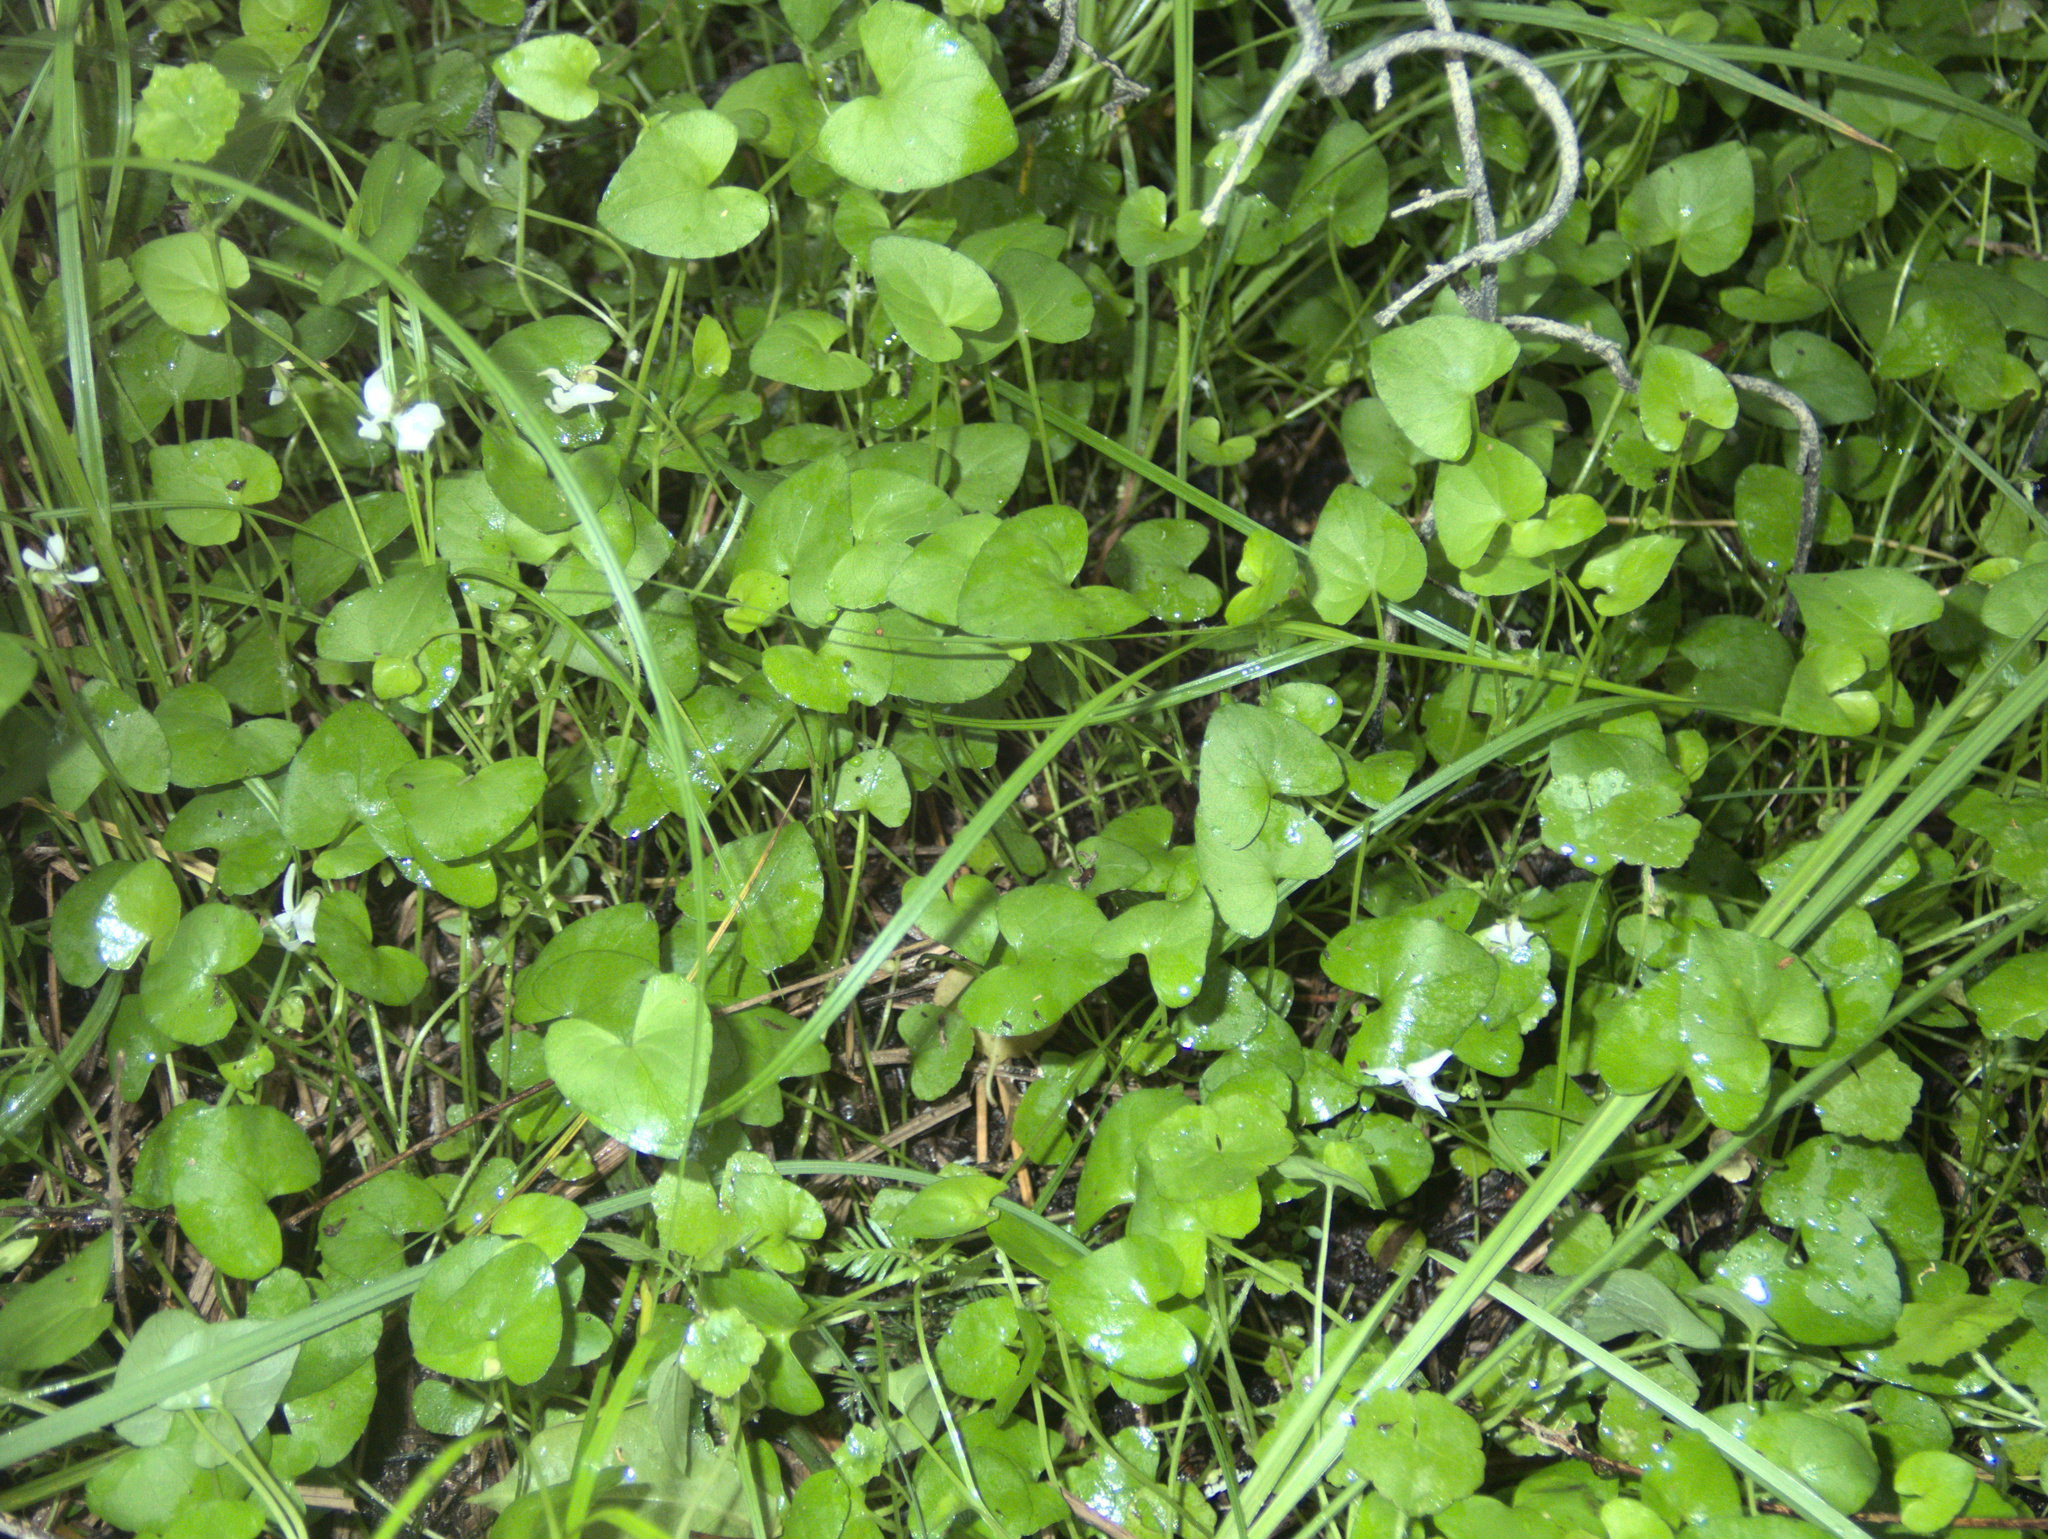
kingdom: Plantae
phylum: Tracheophyta
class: Magnoliopsida
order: Malpighiales
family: Violaceae
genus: Viola
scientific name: Viola lyallii
